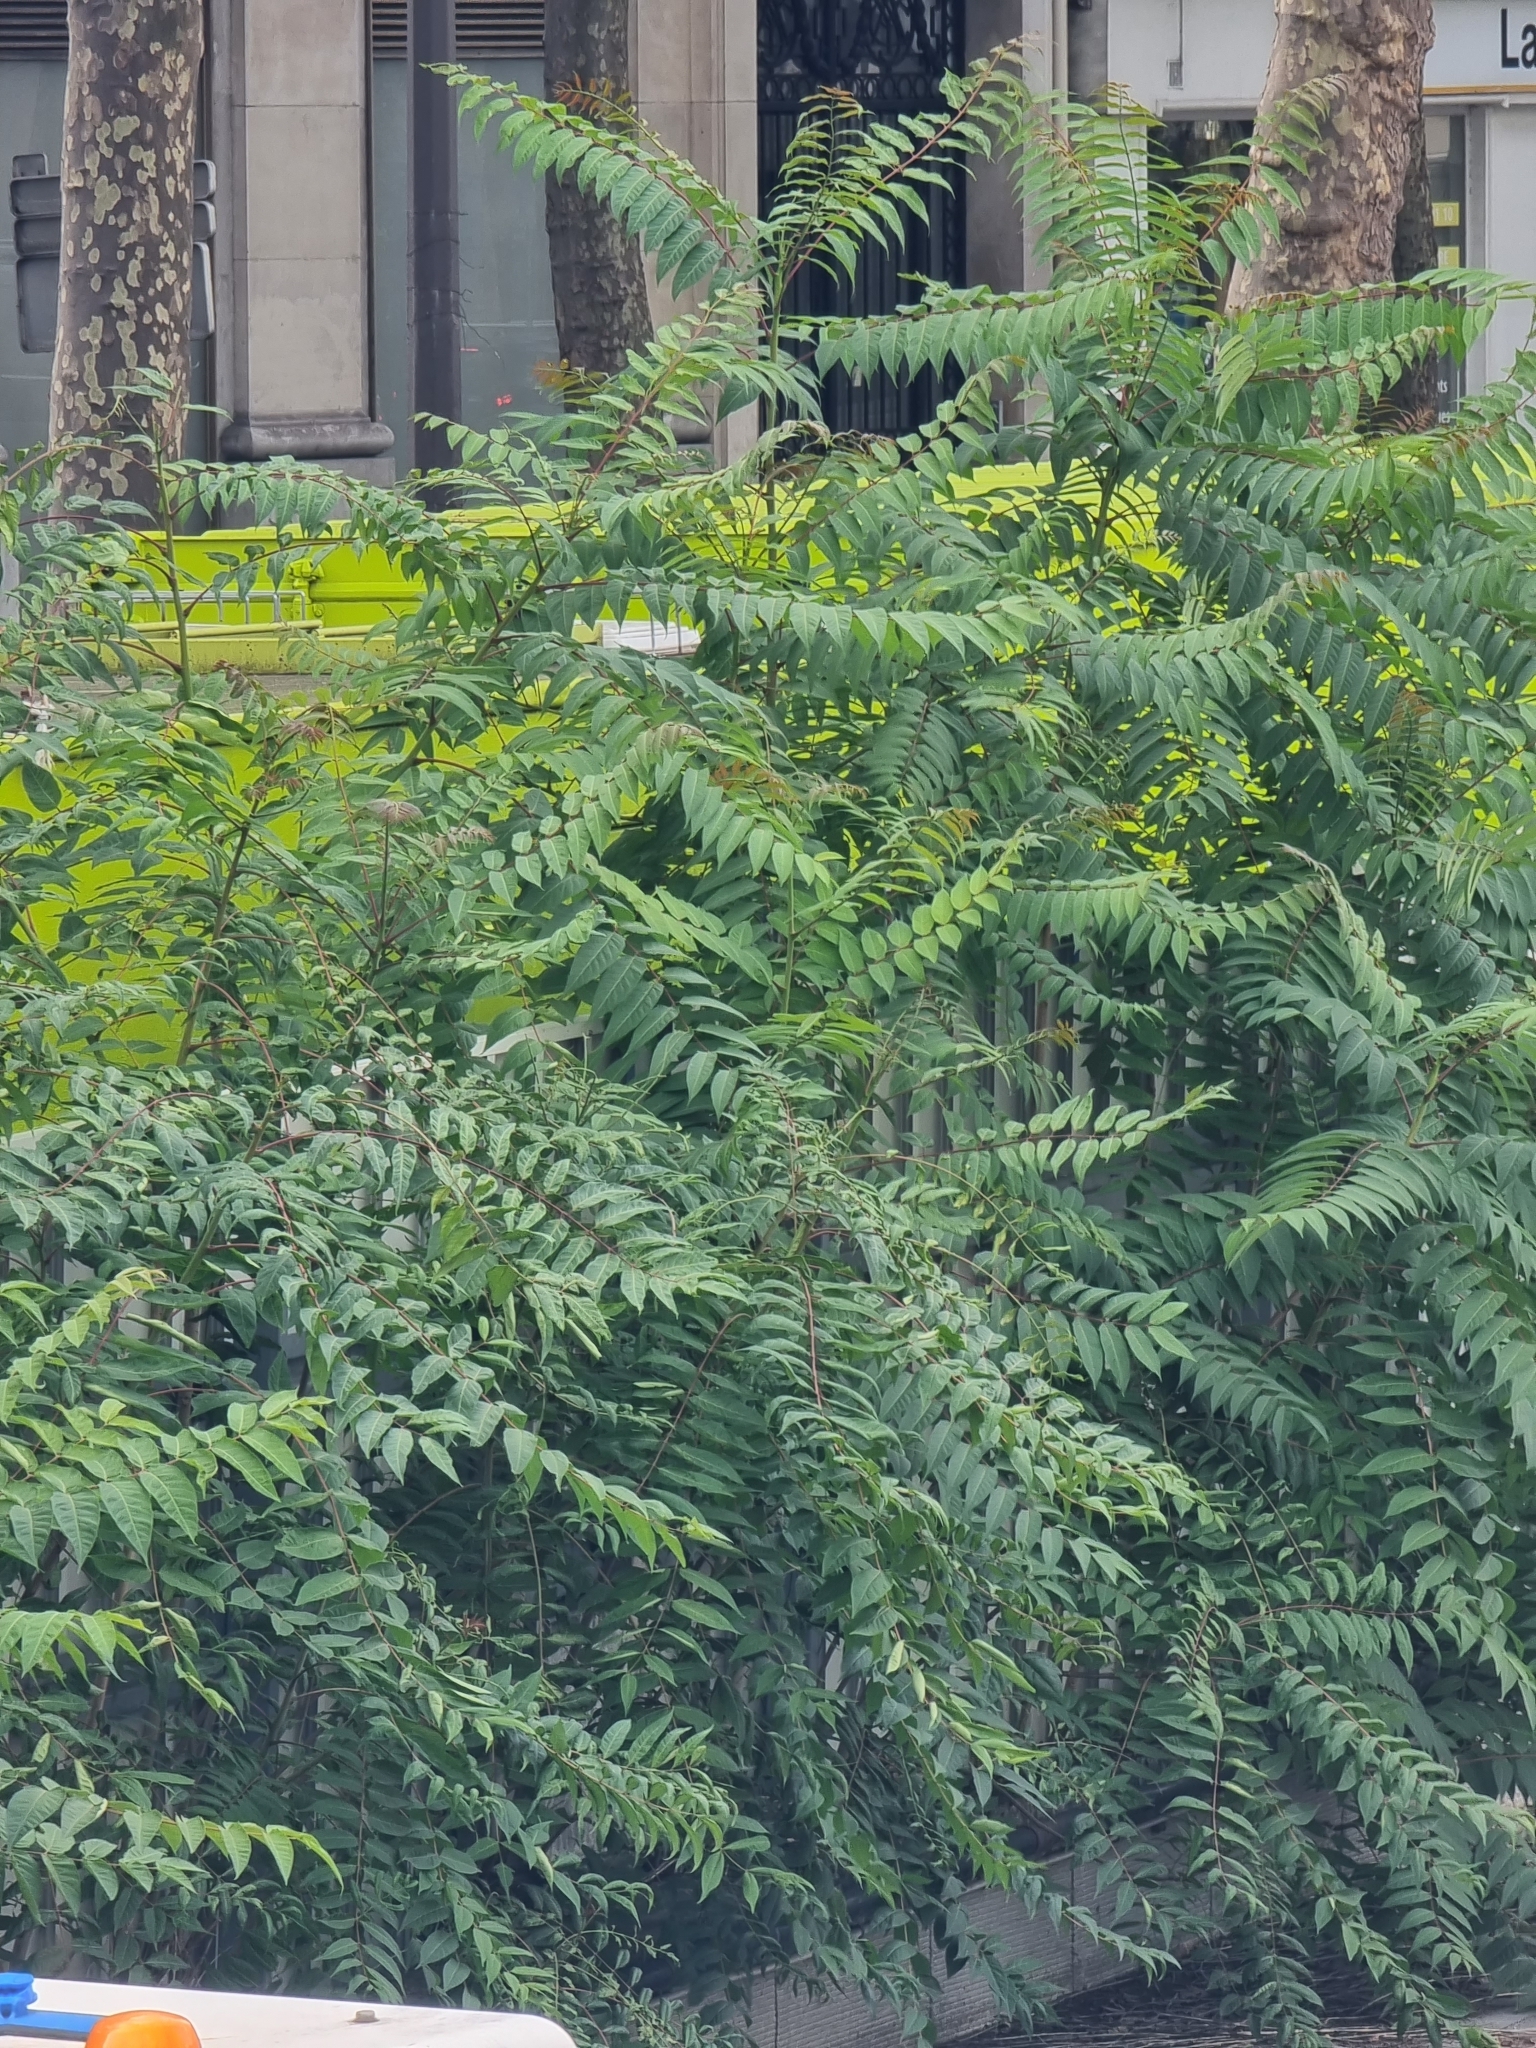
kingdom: Plantae
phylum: Tracheophyta
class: Magnoliopsida
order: Sapindales
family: Simaroubaceae
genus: Ailanthus
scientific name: Ailanthus altissima
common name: Tree-of-heaven
